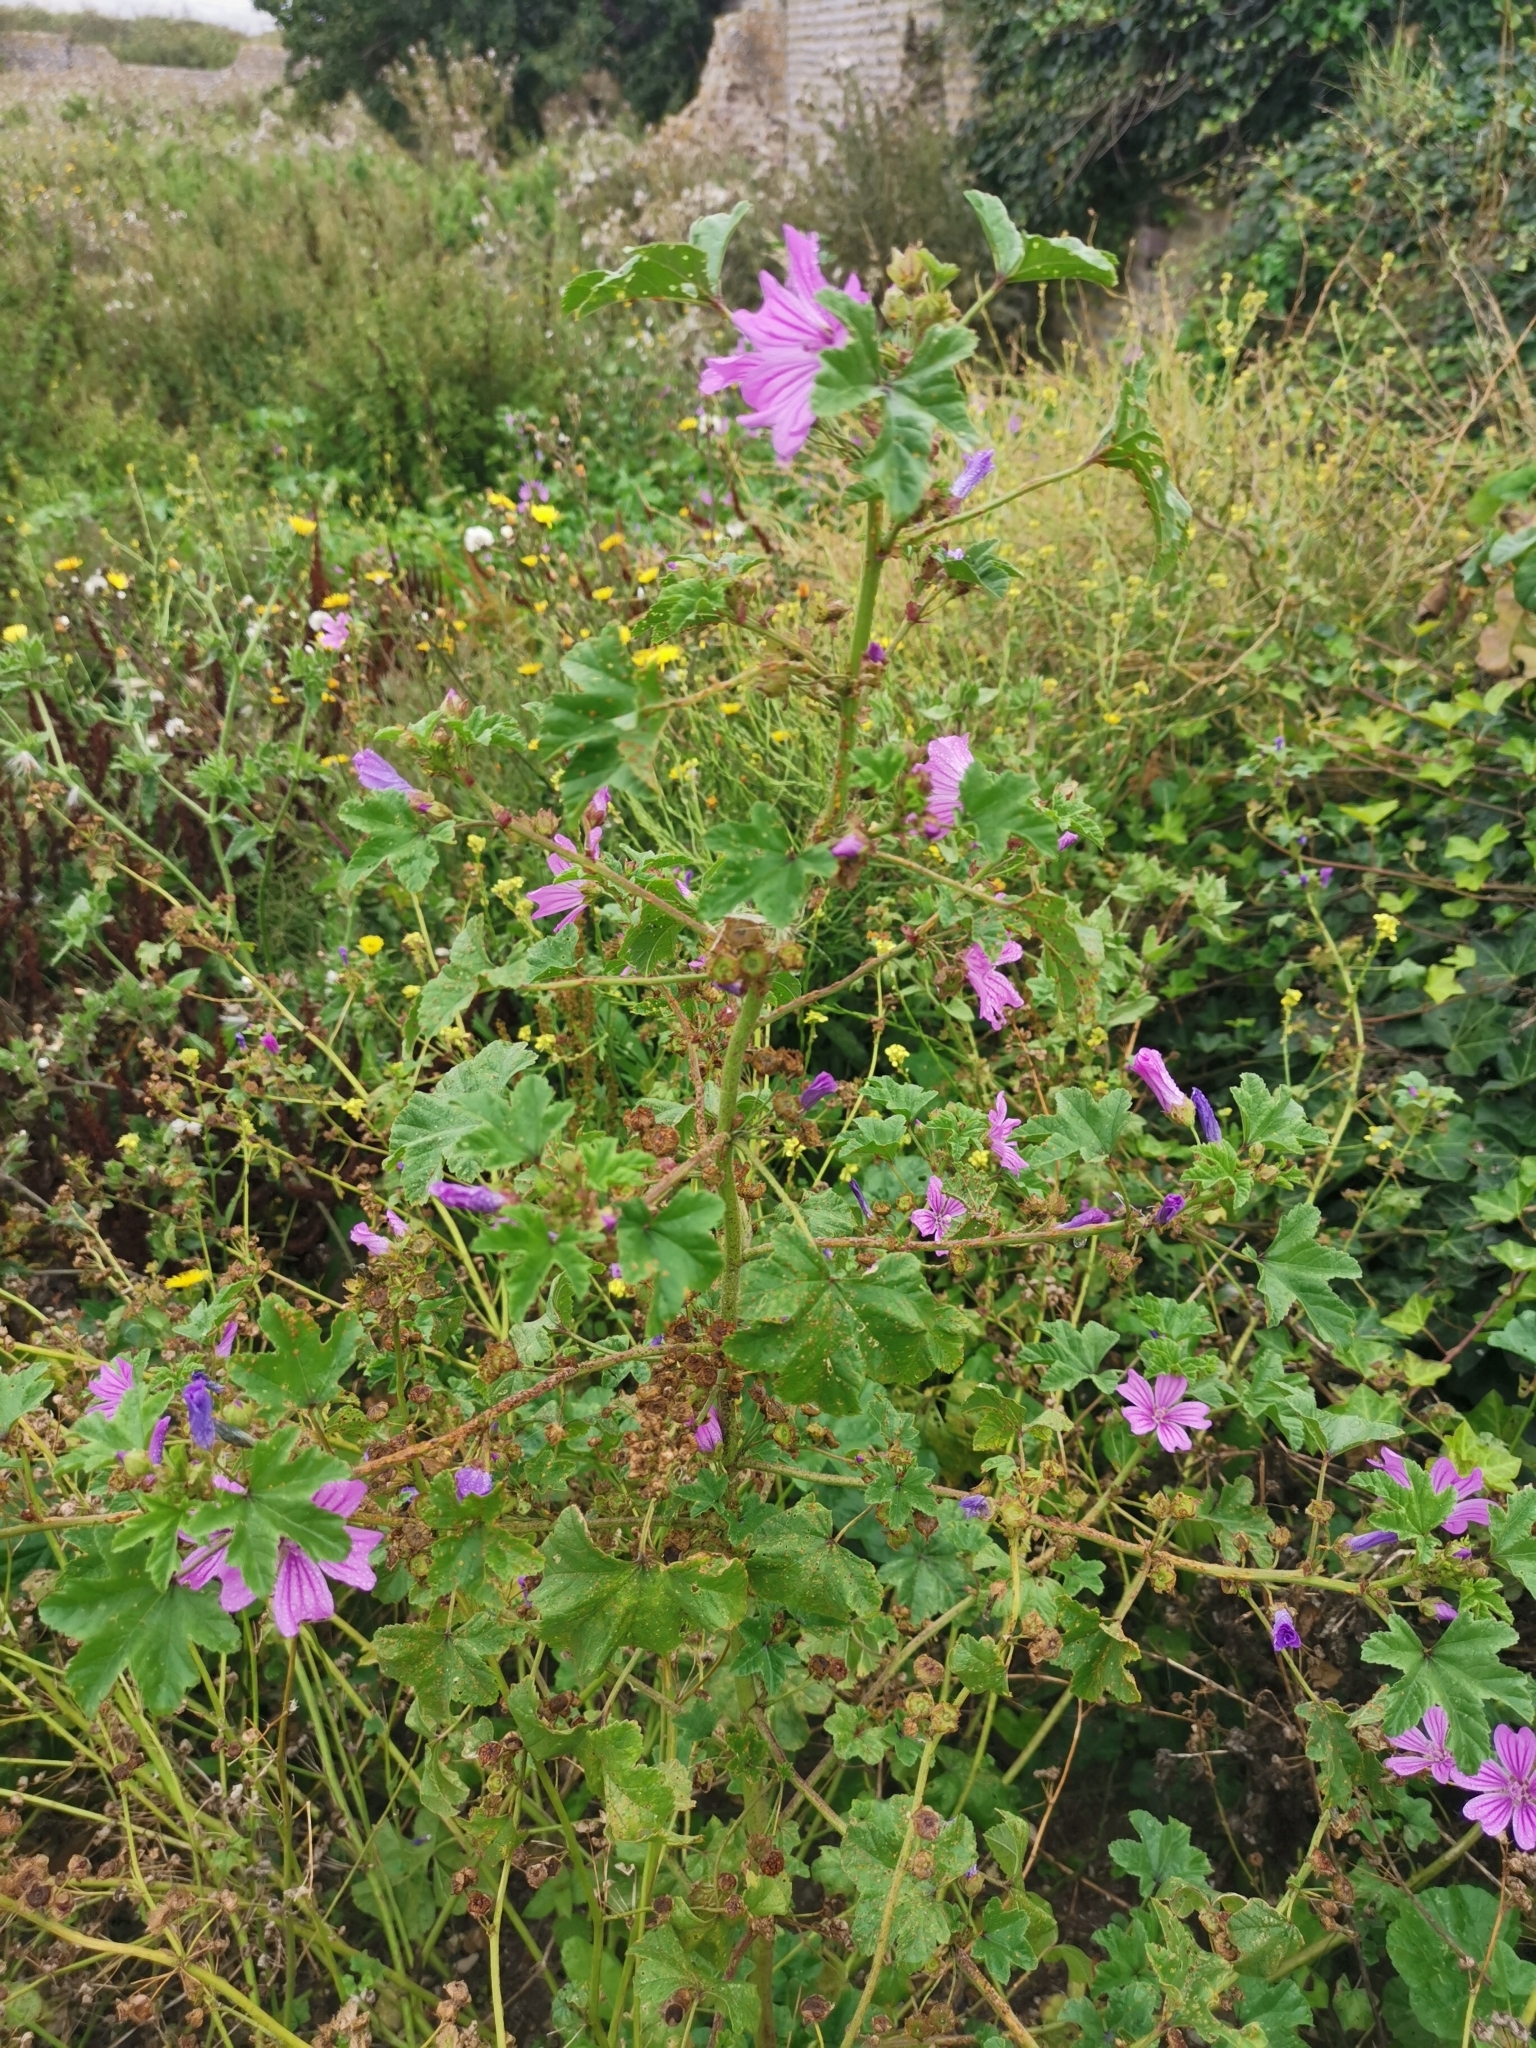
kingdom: Plantae
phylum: Tracheophyta
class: Magnoliopsida
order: Malvales
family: Malvaceae
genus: Malva
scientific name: Malva sylvestris
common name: Common mallow
